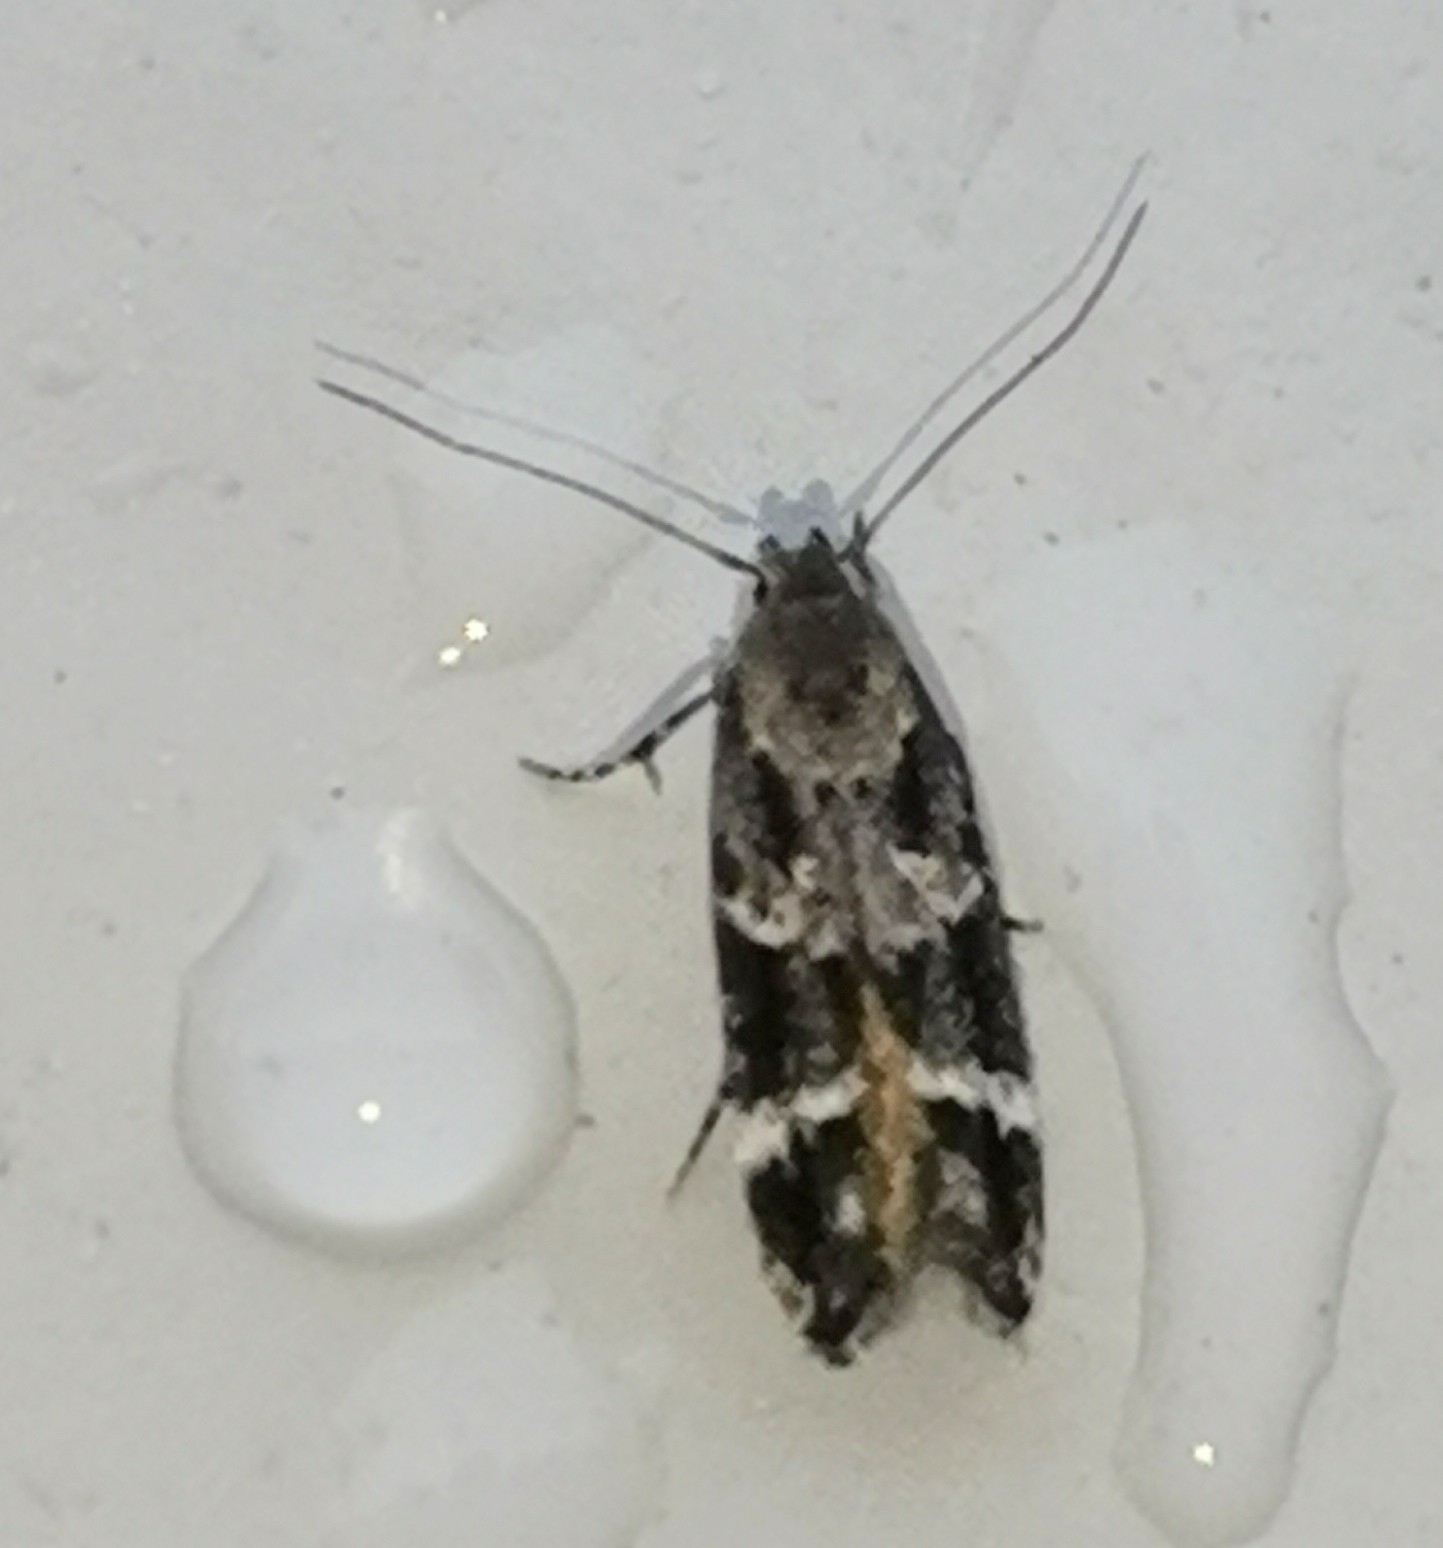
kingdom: Animalia
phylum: Arthropoda
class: Insecta
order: Lepidoptera
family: Momphidae
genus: Mompha
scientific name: Mompha subbistrigella
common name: Garden cosmet
